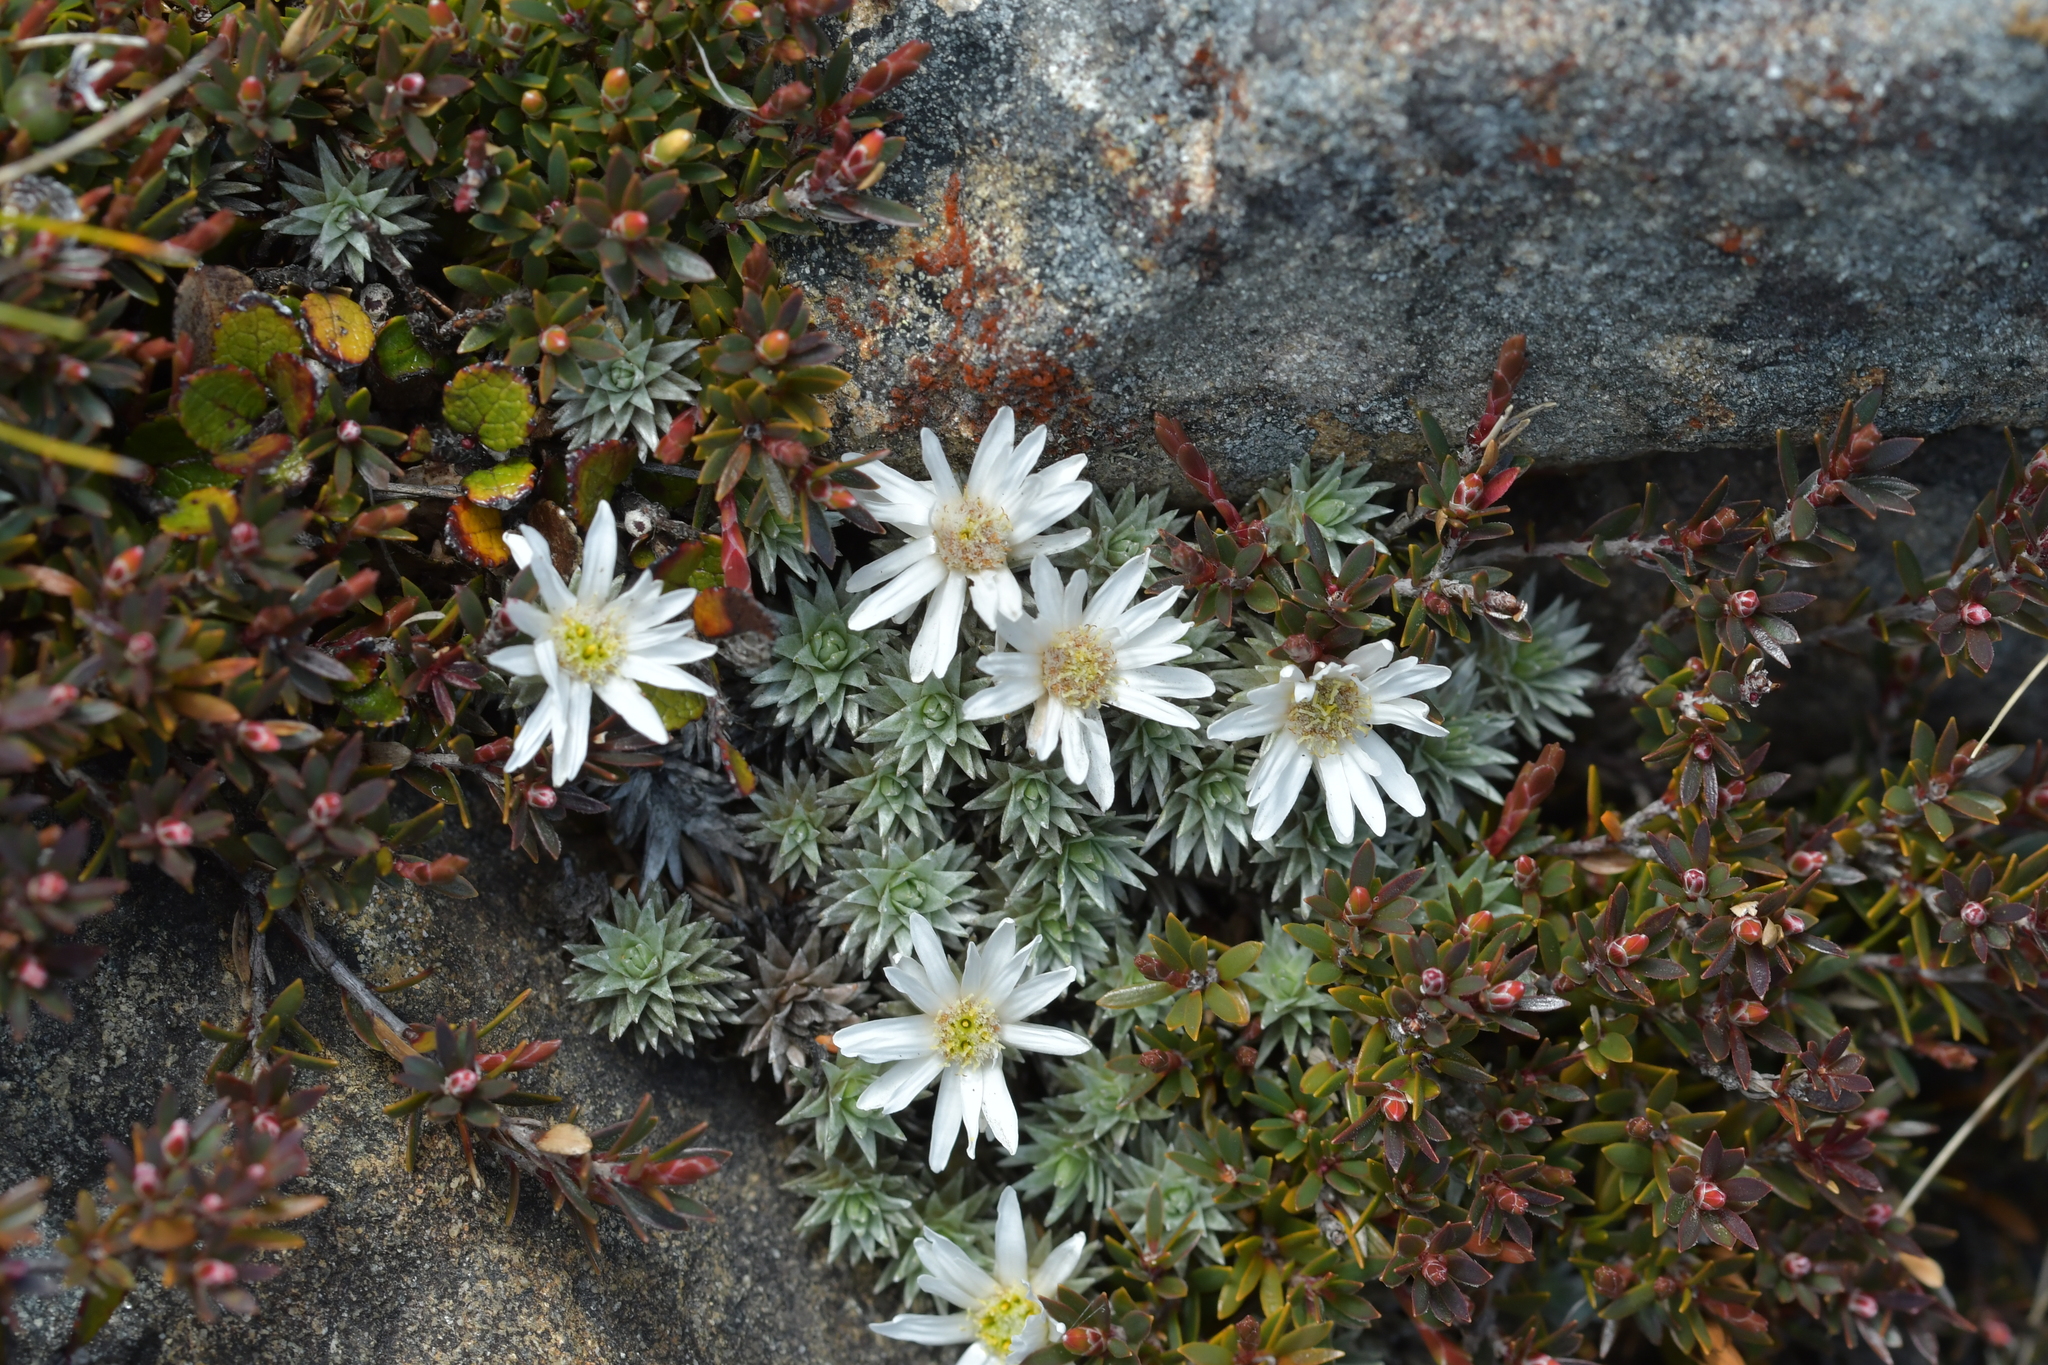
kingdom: Plantae
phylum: Tracheophyta
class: Magnoliopsida
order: Asterales
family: Asteraceae
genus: Raoulia
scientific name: Raoulia grandiflora
